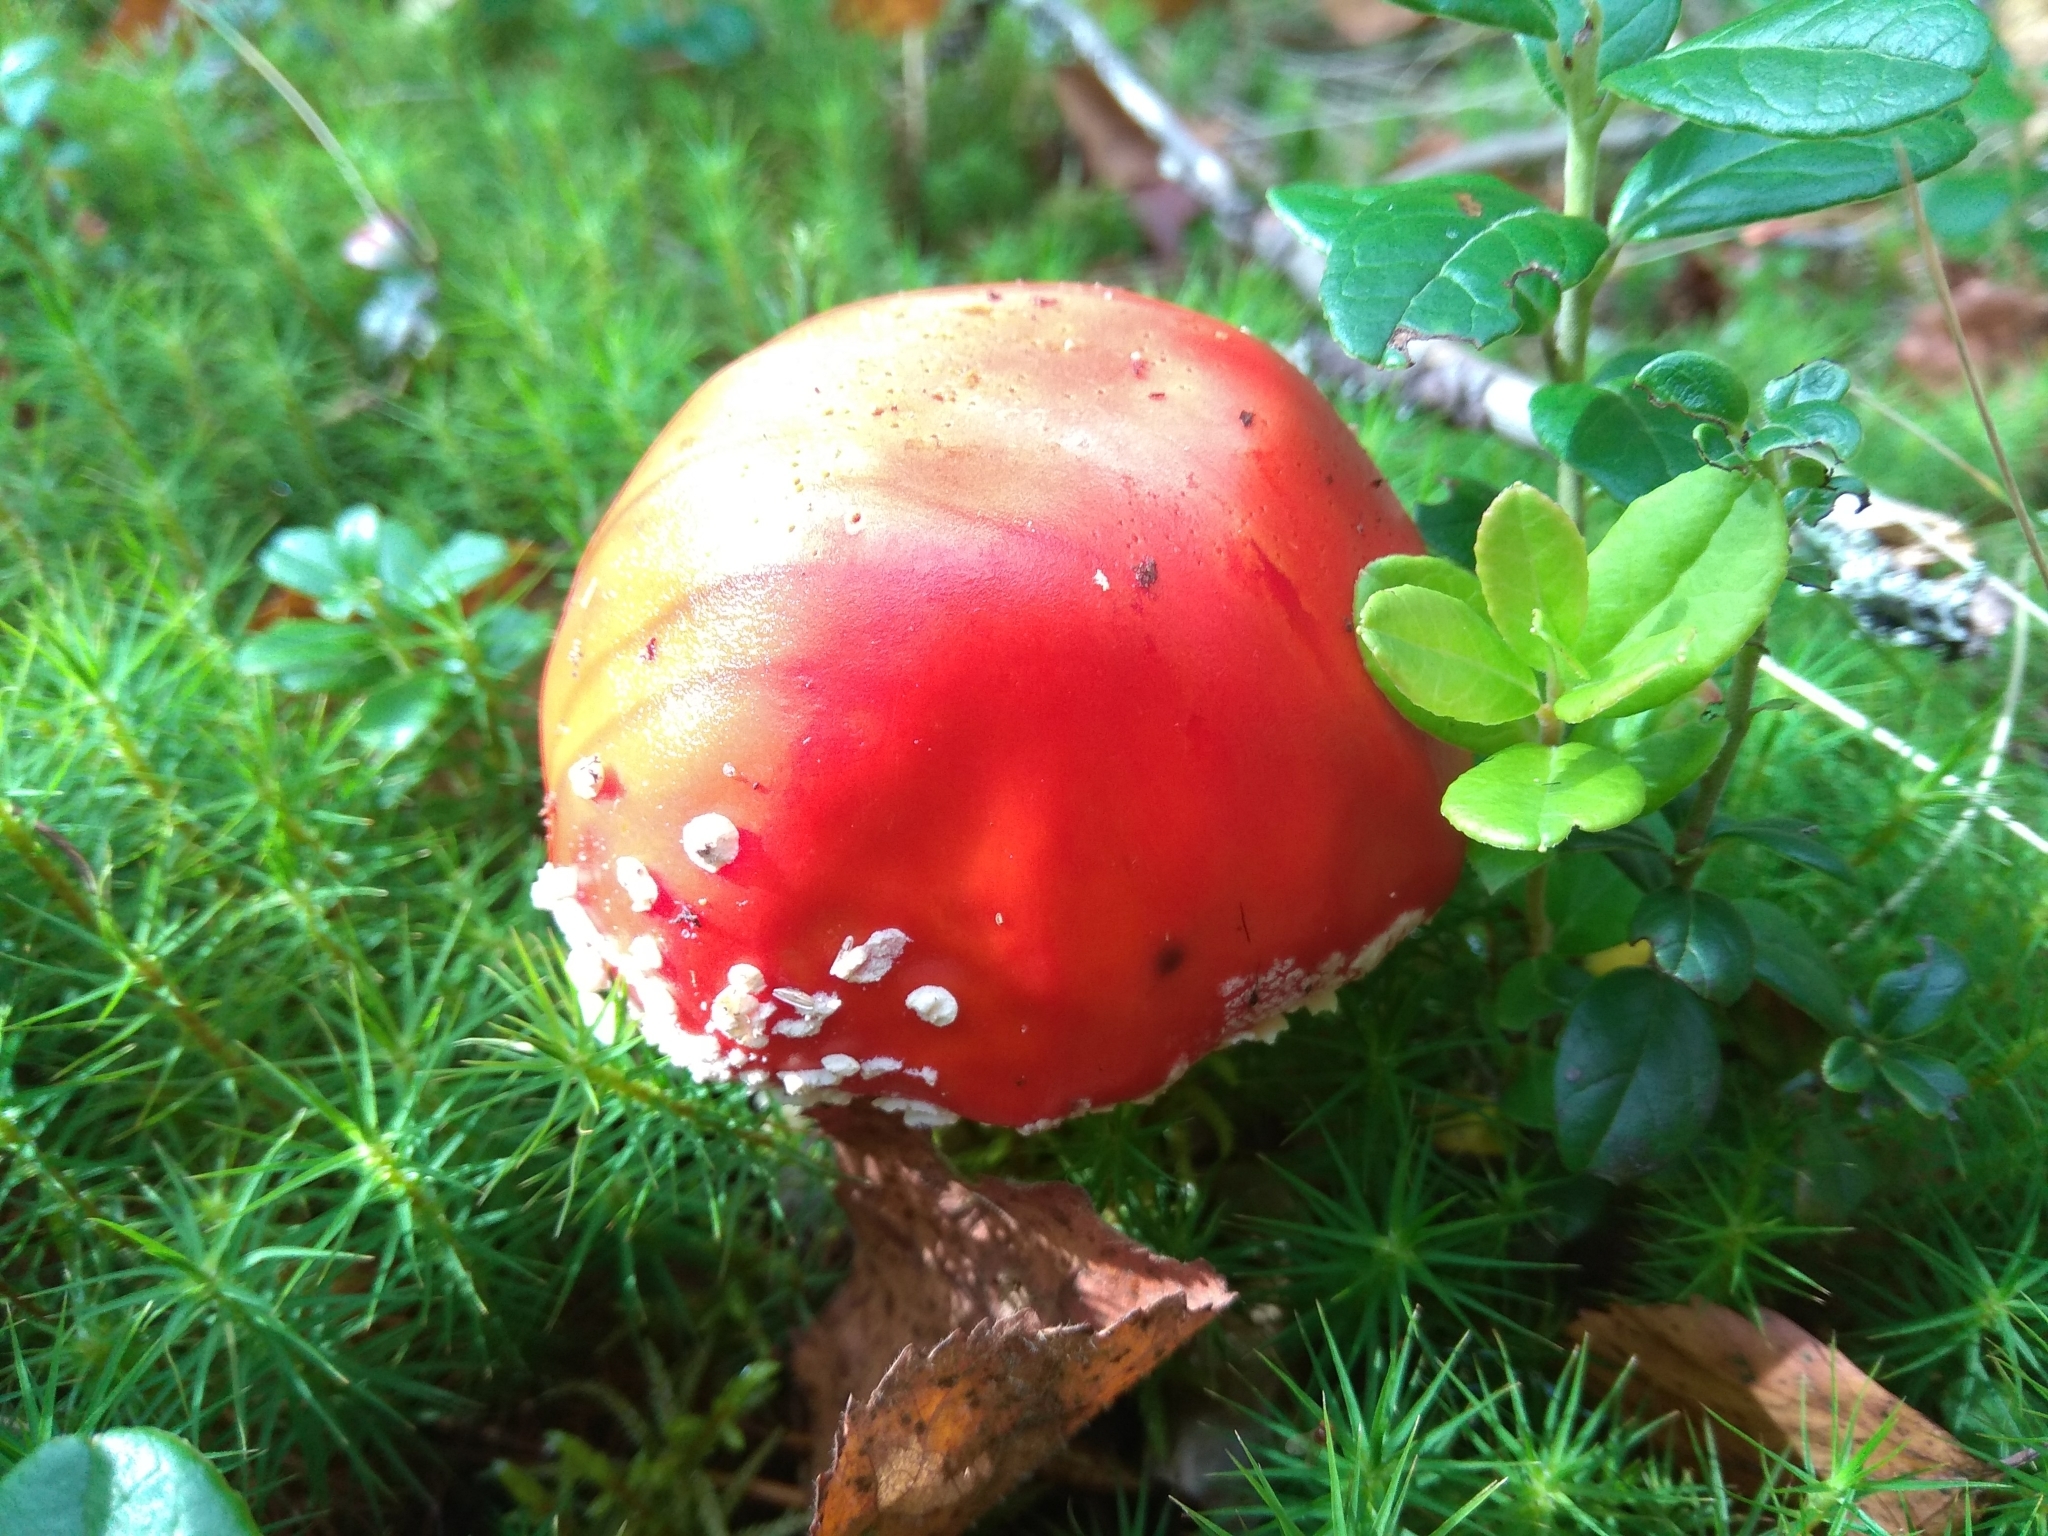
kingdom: Fungi
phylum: Basidiomycota
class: Agaricomycetes
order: Agaricales
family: Amanitaceae
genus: Amanita
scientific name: Amanita muscaria
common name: Fly agaric
